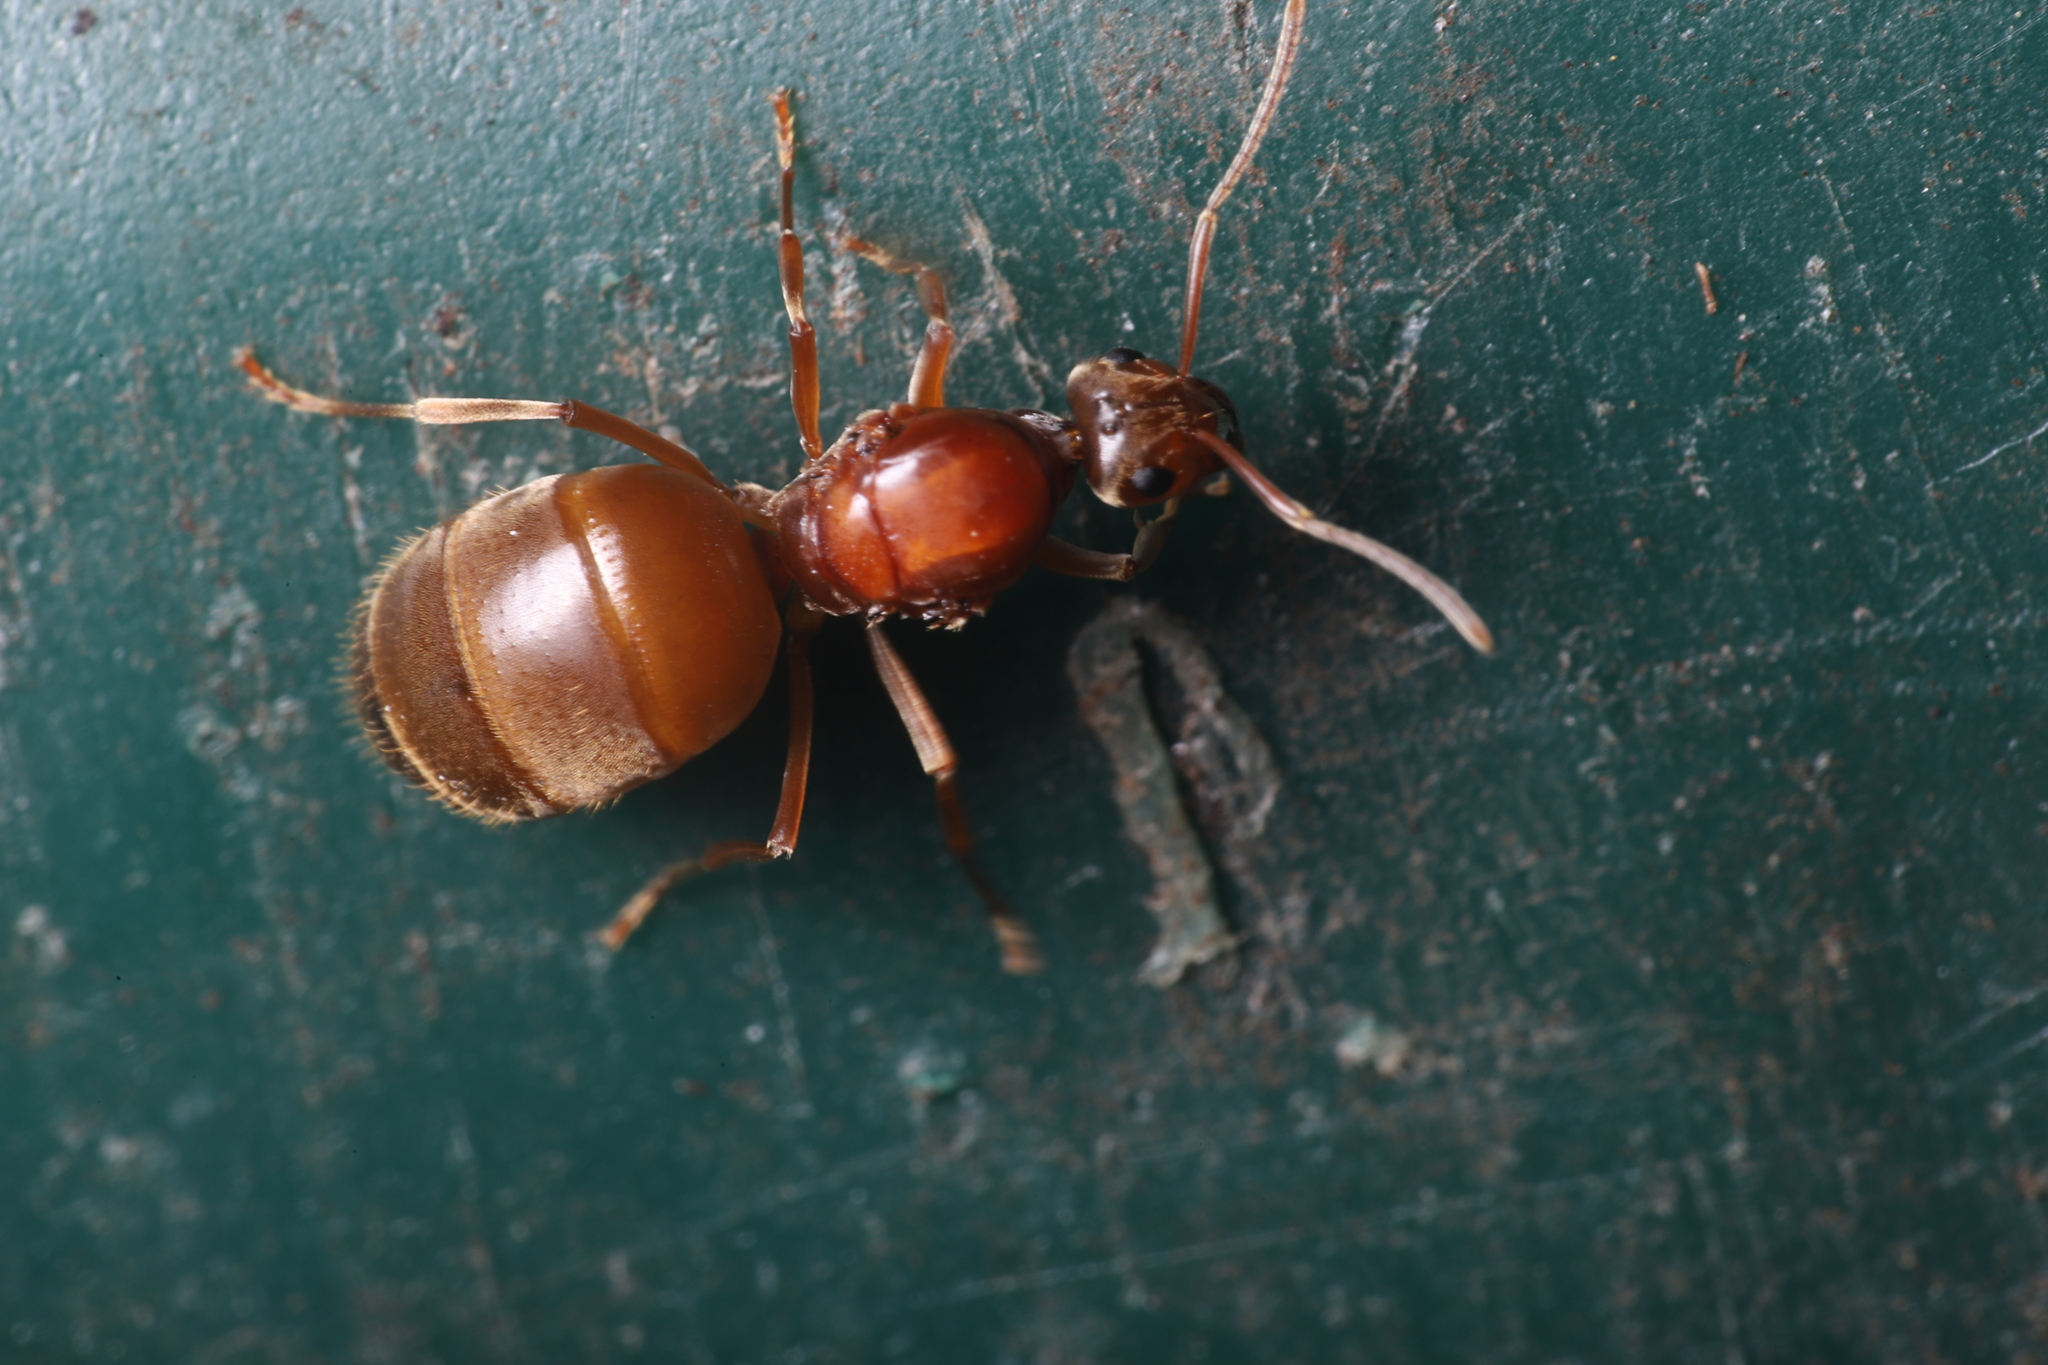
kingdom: Animalia
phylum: Arthropoda
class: Insecta
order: Hymenoptera
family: Formicidae
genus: Prenolepis
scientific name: Prenolepis imparis
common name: Small honey ant
